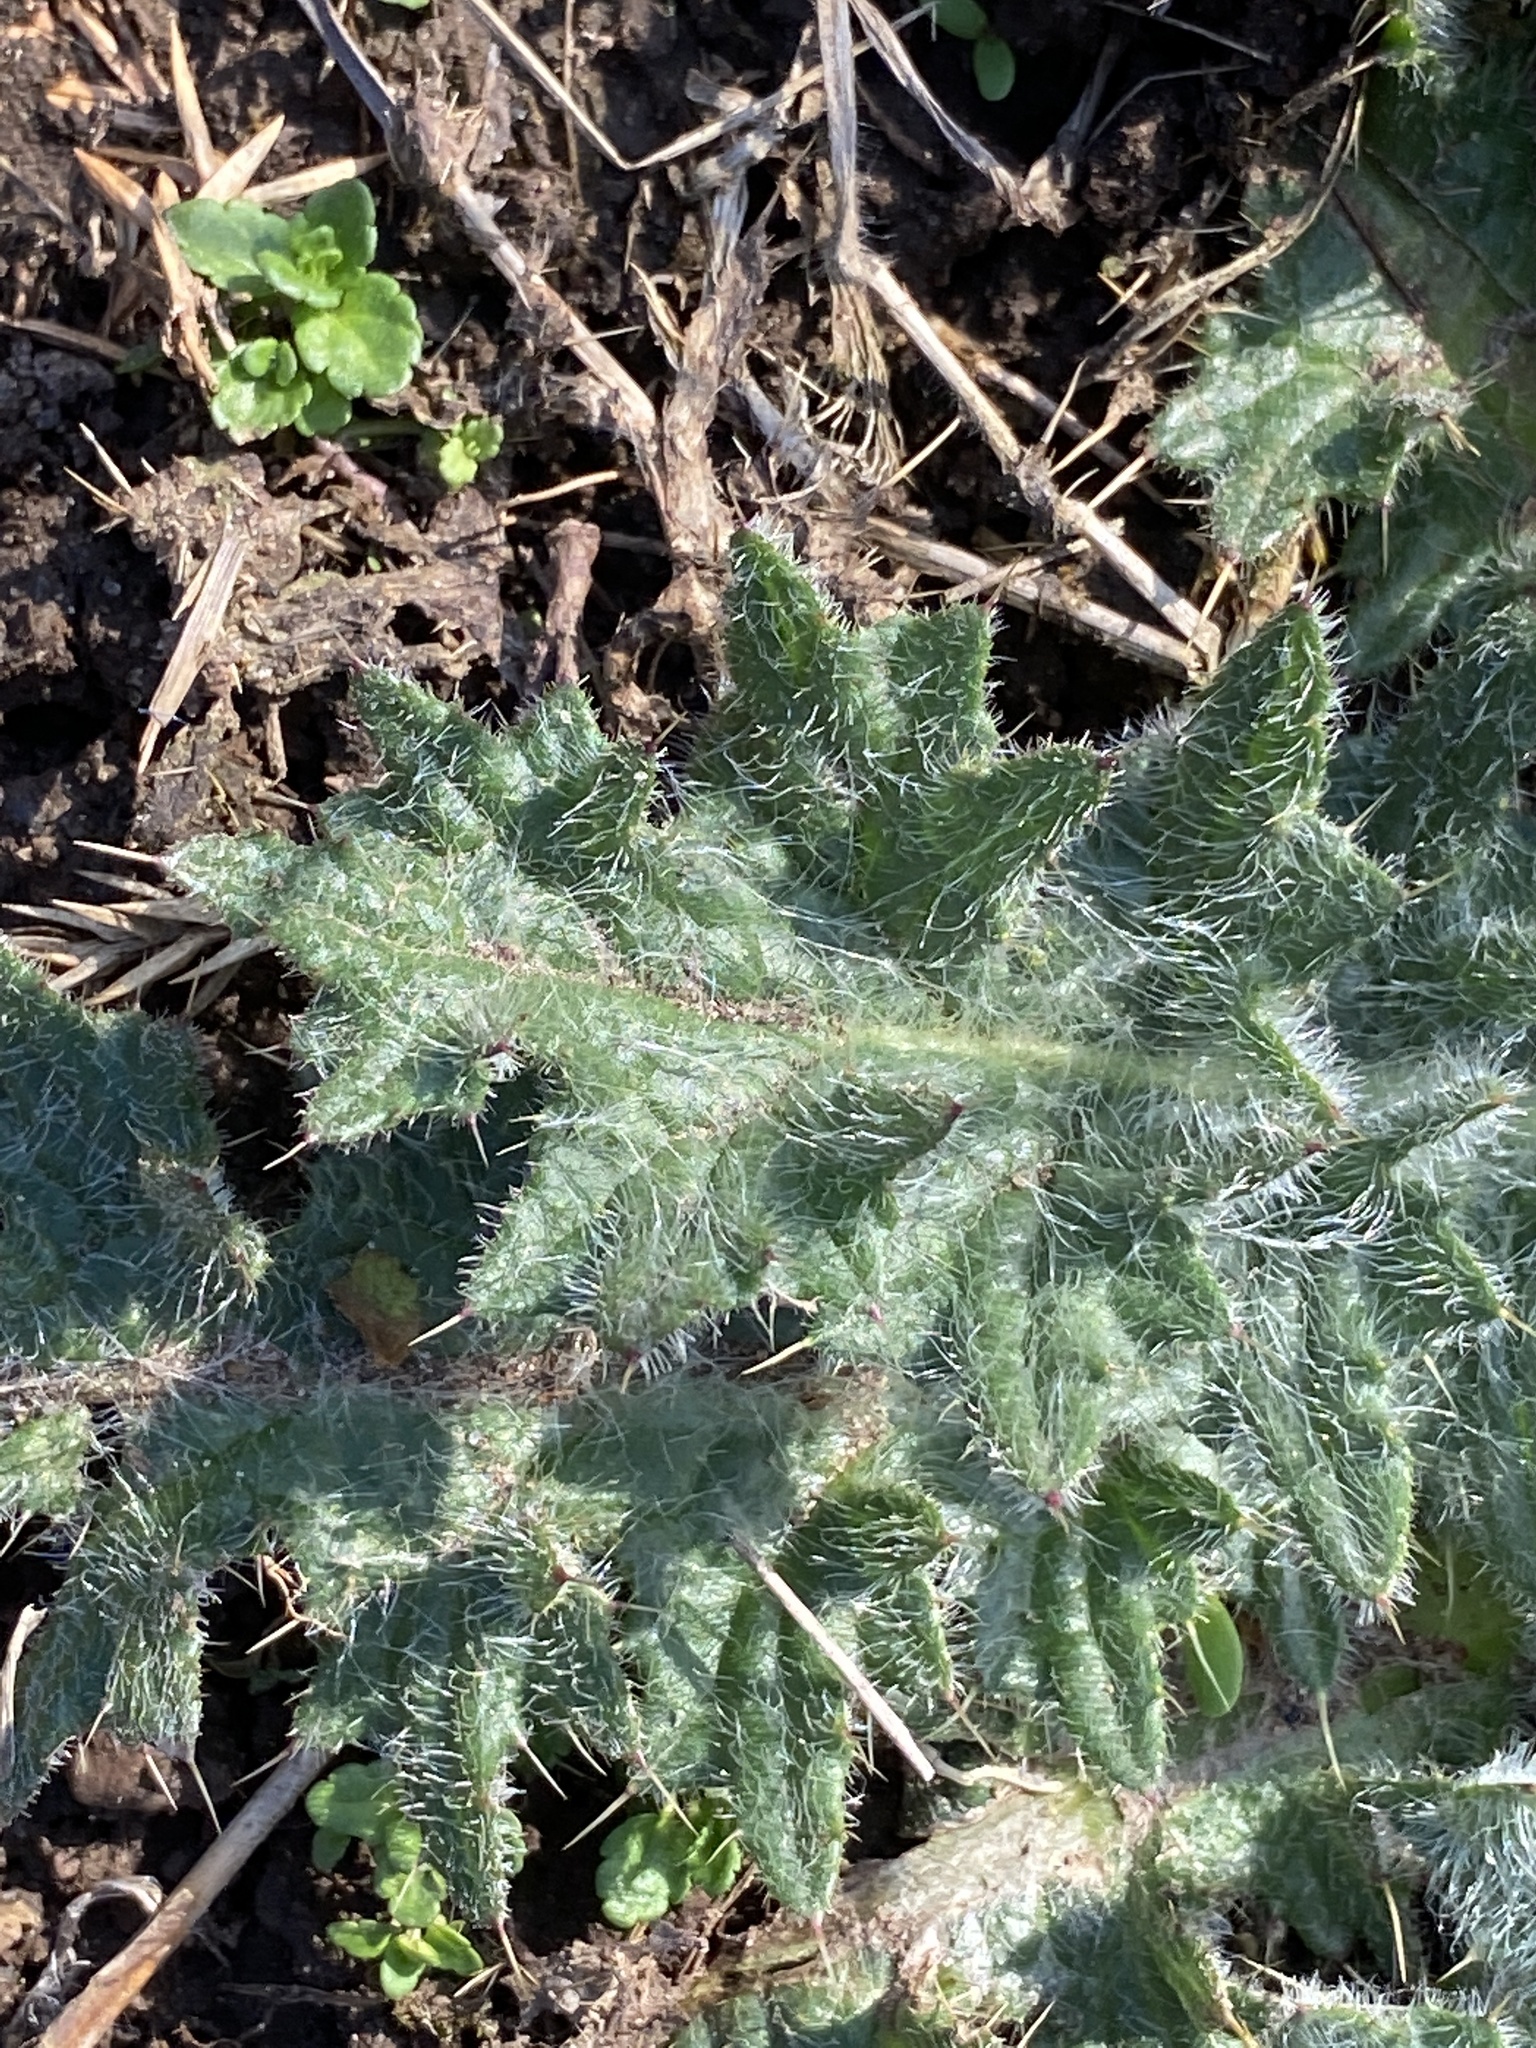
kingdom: Plantae
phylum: Tracheophyta
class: Magnoliopsida
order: Asterales
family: Asteraceae
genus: Cirsium
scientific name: Cirsium vulgare
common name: Bull thistle
